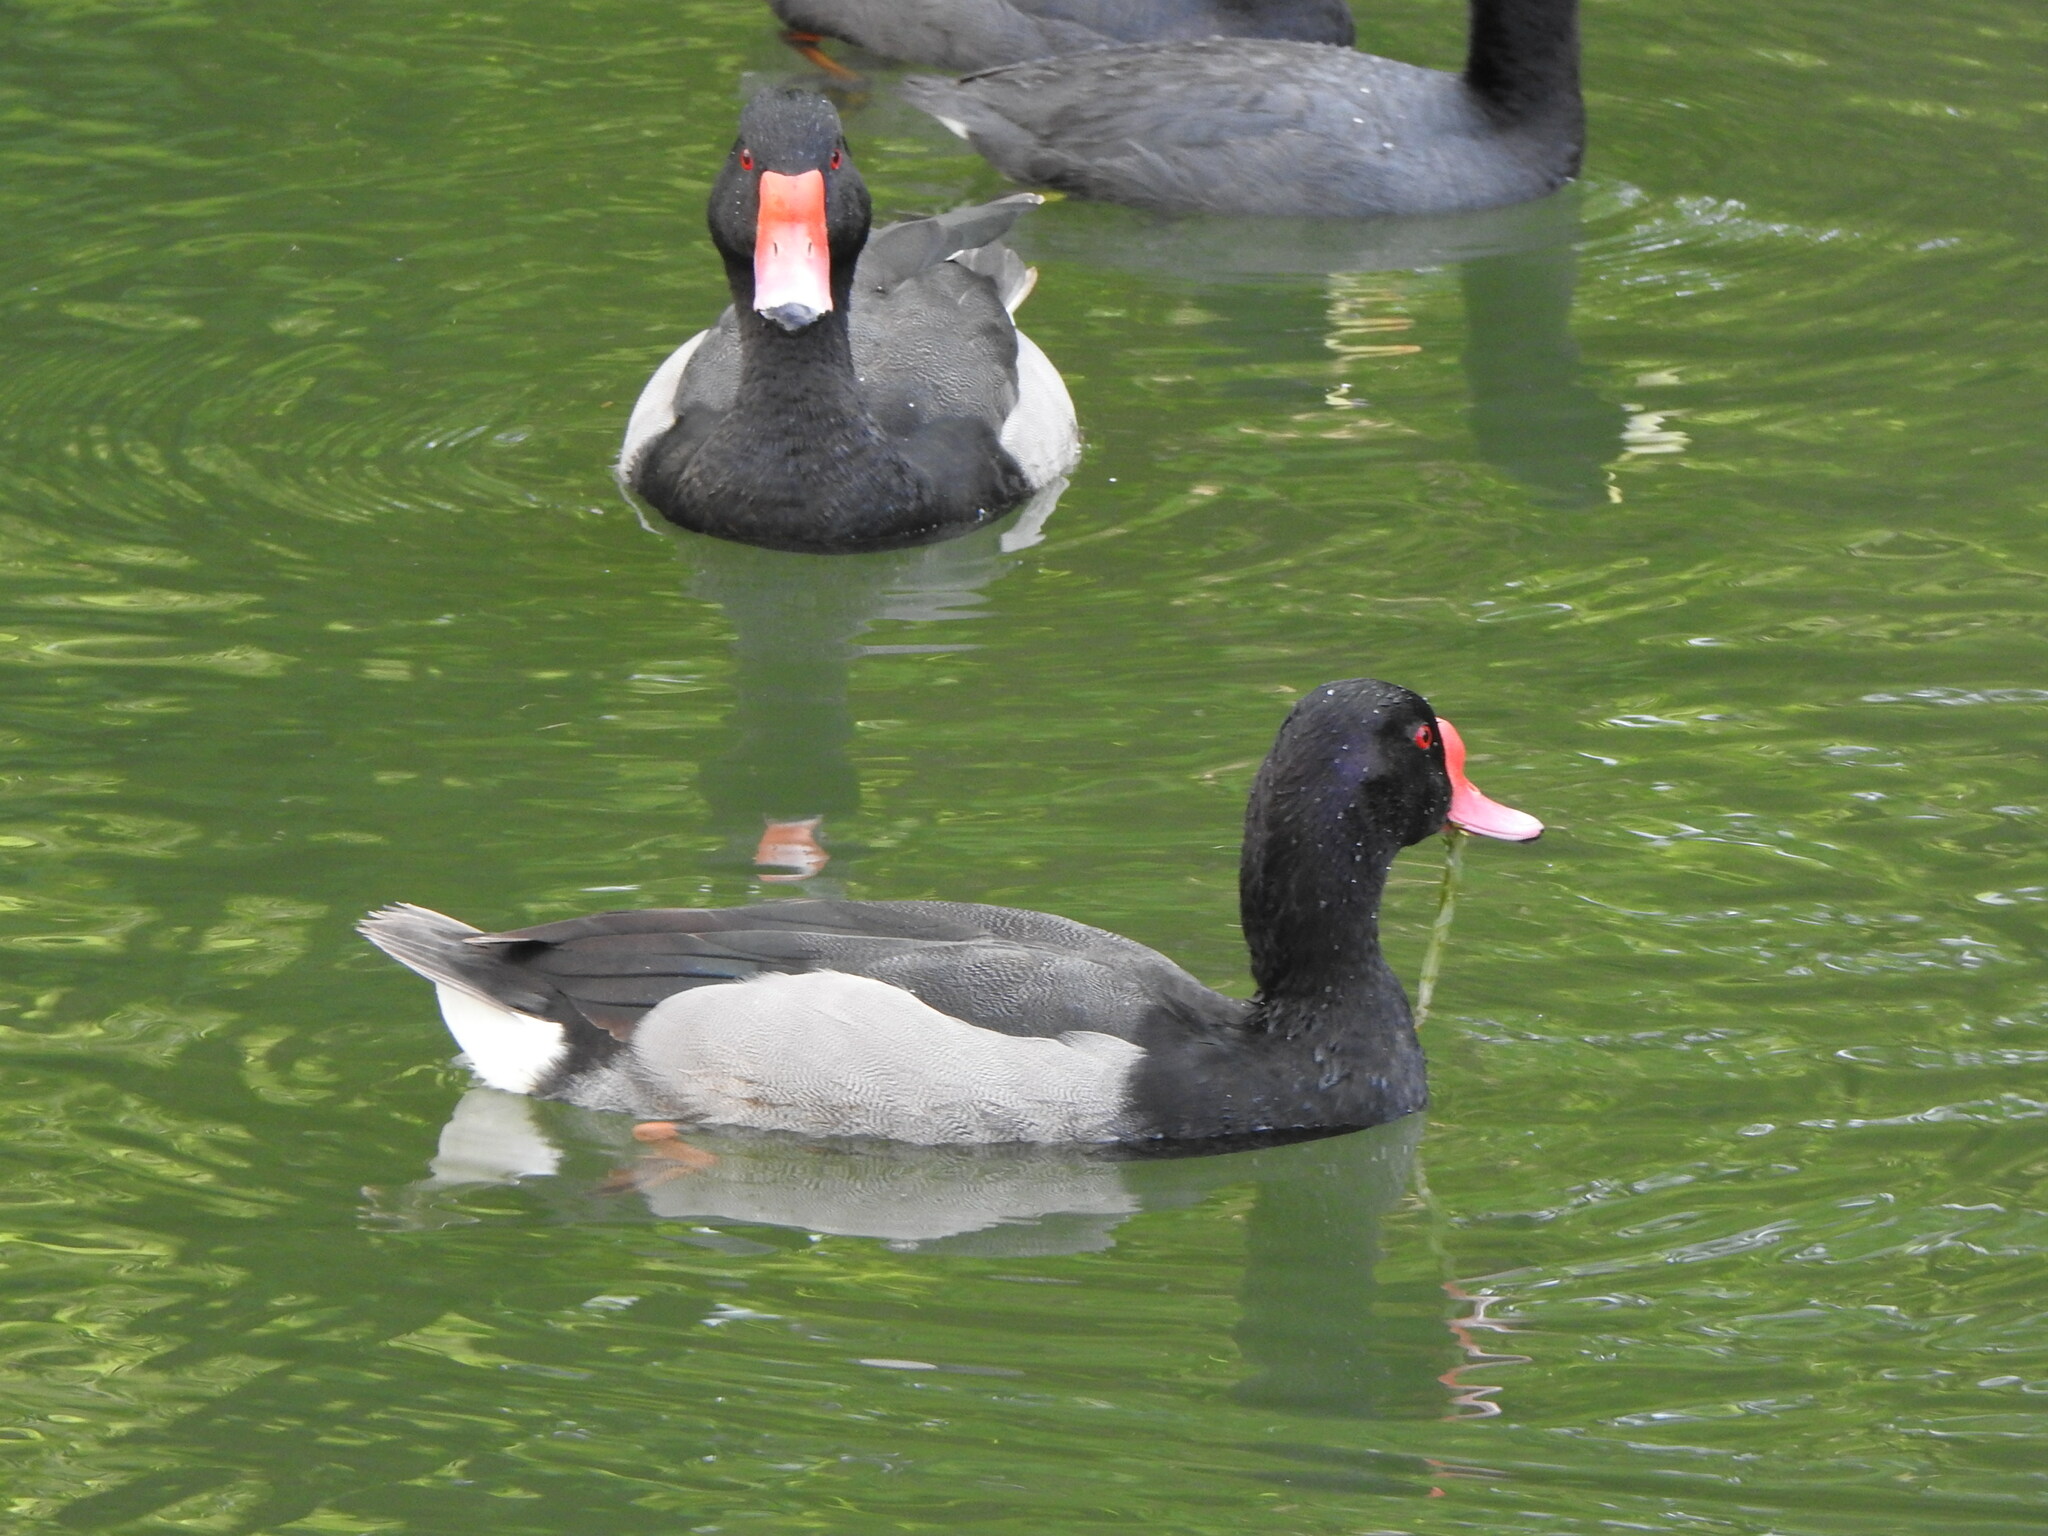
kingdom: Animalia
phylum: Chordata
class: Aves
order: Anseriformes
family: Anatidae
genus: Netta
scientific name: Netta peposaca
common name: Rosy-billed pochard
